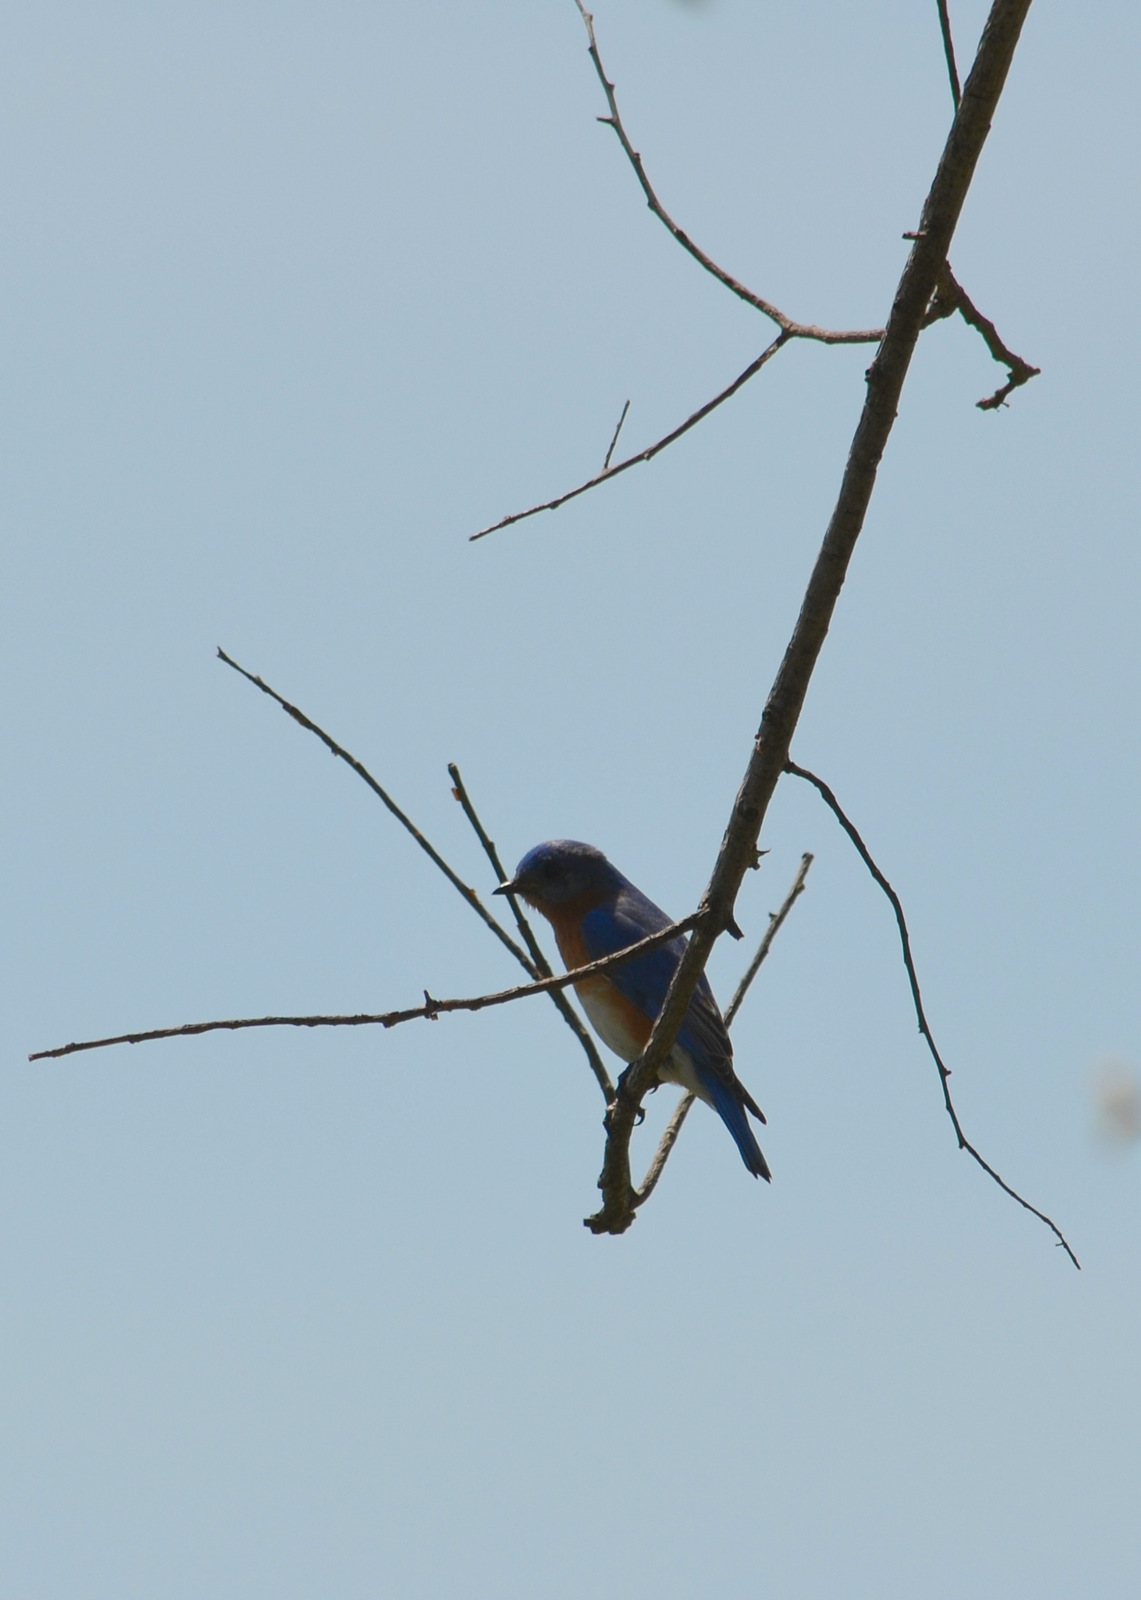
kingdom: Animalia
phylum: Chordata
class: Aves
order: Passeriformes
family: Turdidae
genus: Sialia
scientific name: Sialia sialis
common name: Eastern bluebird
